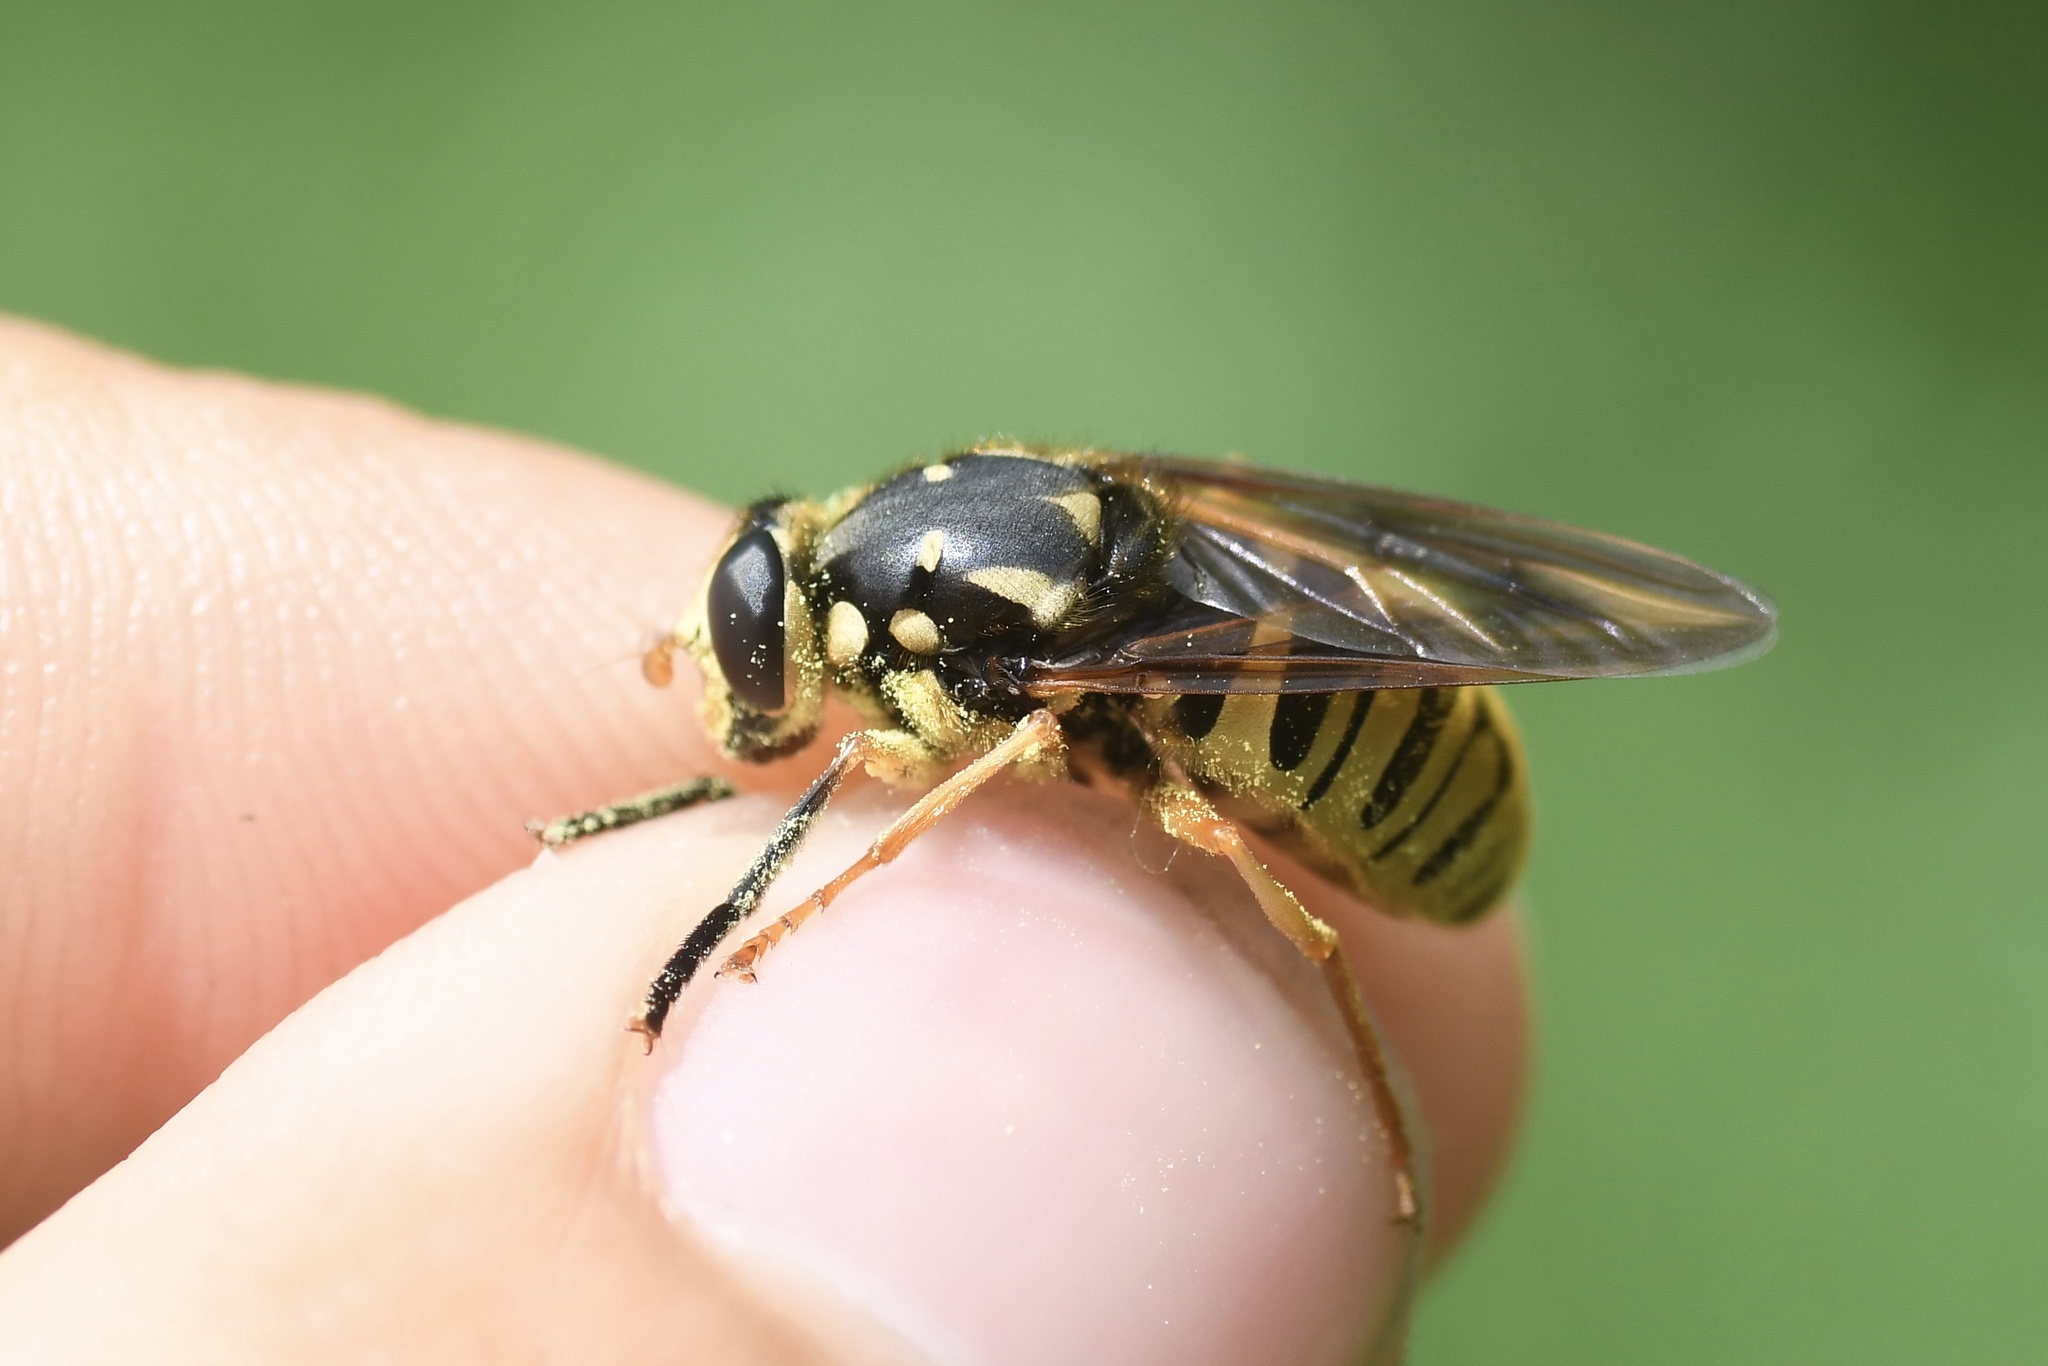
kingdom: Animalia
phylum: Arthropoda
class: Insecta
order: Diptera
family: Syrphidae
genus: Temnostoma
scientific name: Temnostoma alternans
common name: Wasp-like falsehorn
